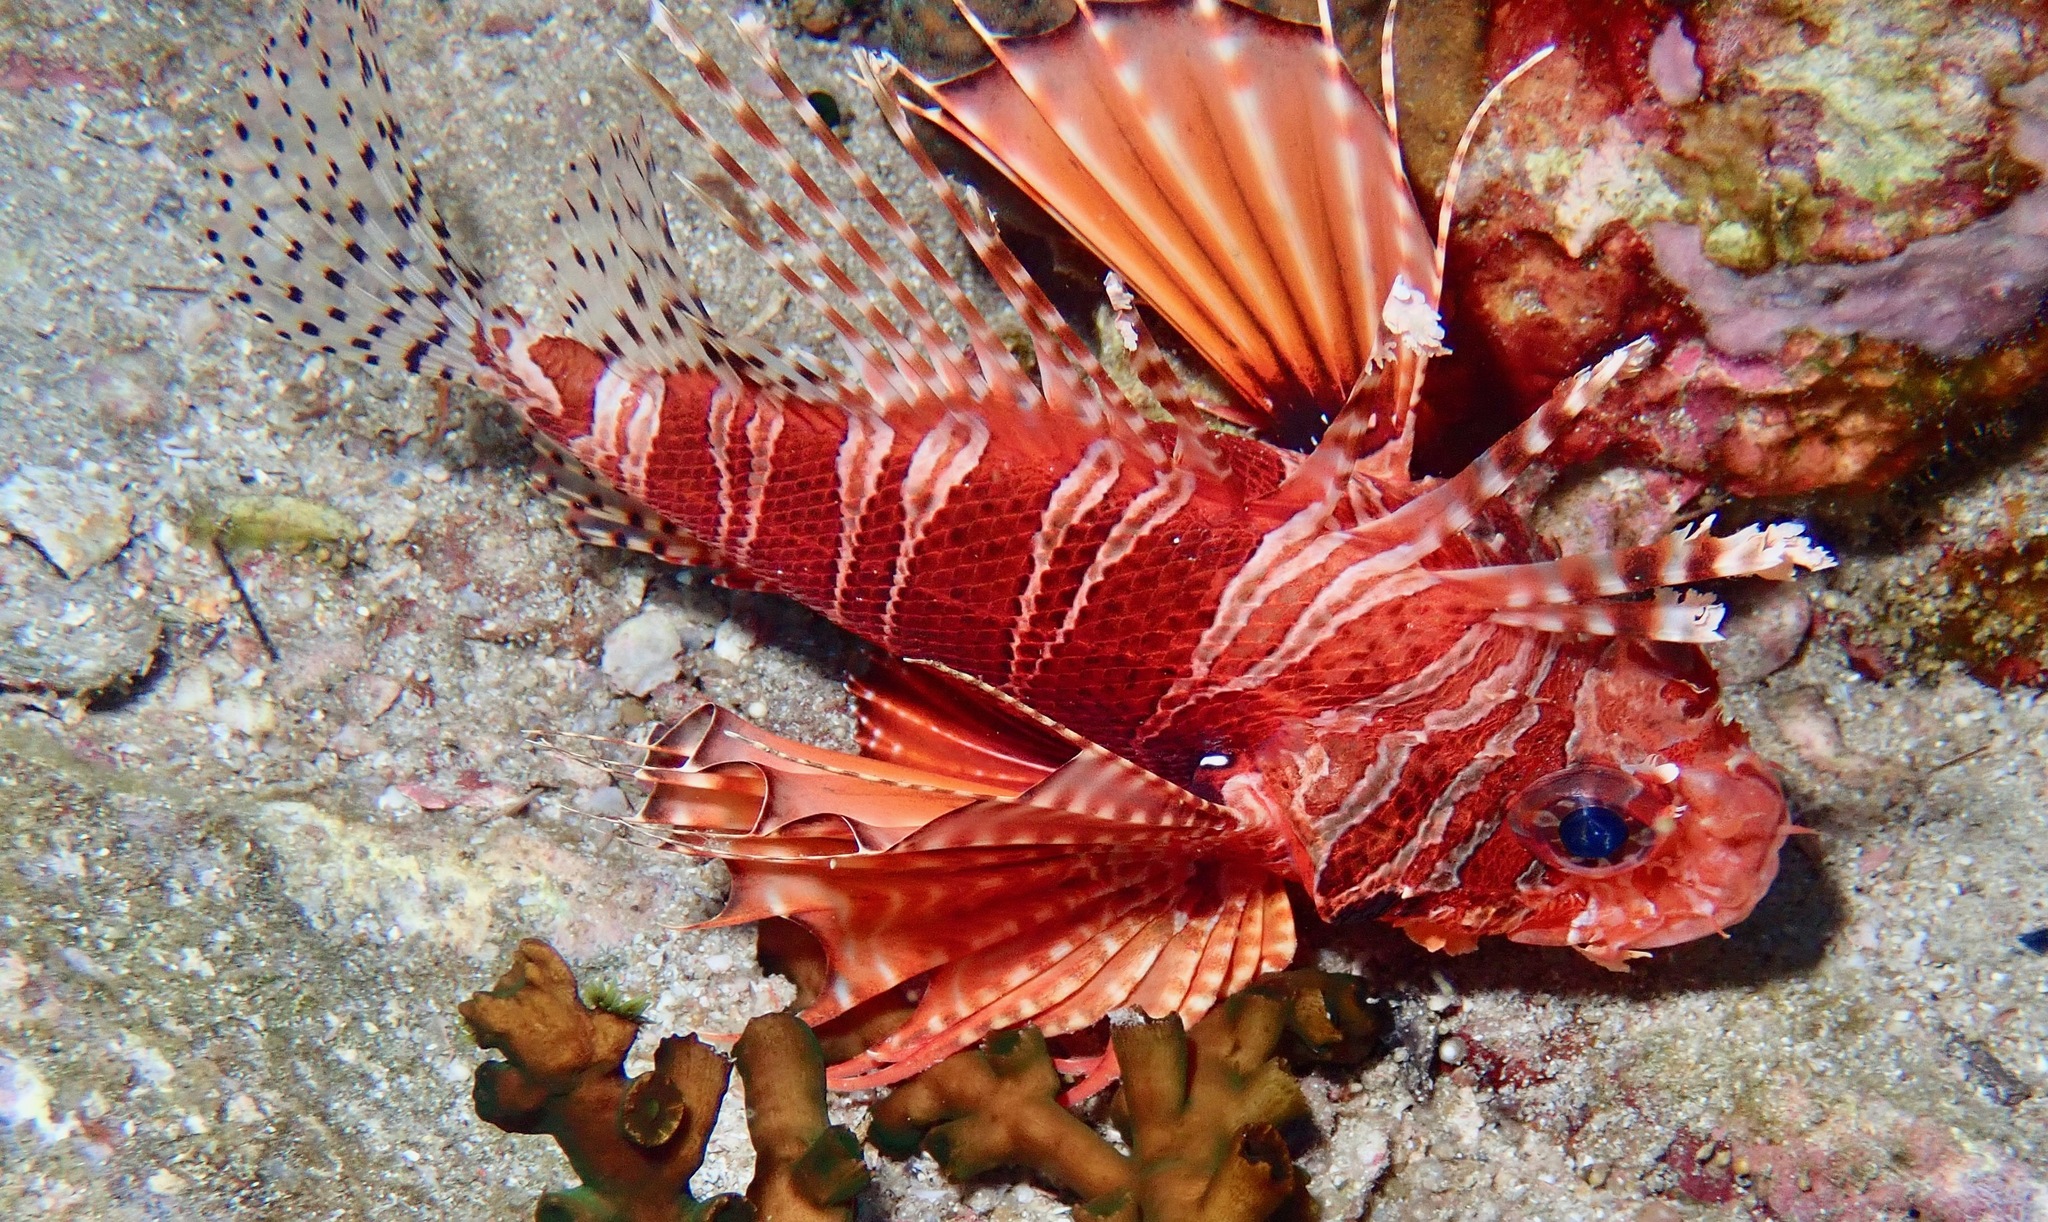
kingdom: Animalia
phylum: Chordata
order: Scorpaeniformes
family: Scorpaenidae
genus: Dendrochirus
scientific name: Dendrochirus zebra
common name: Zebra lionfish
